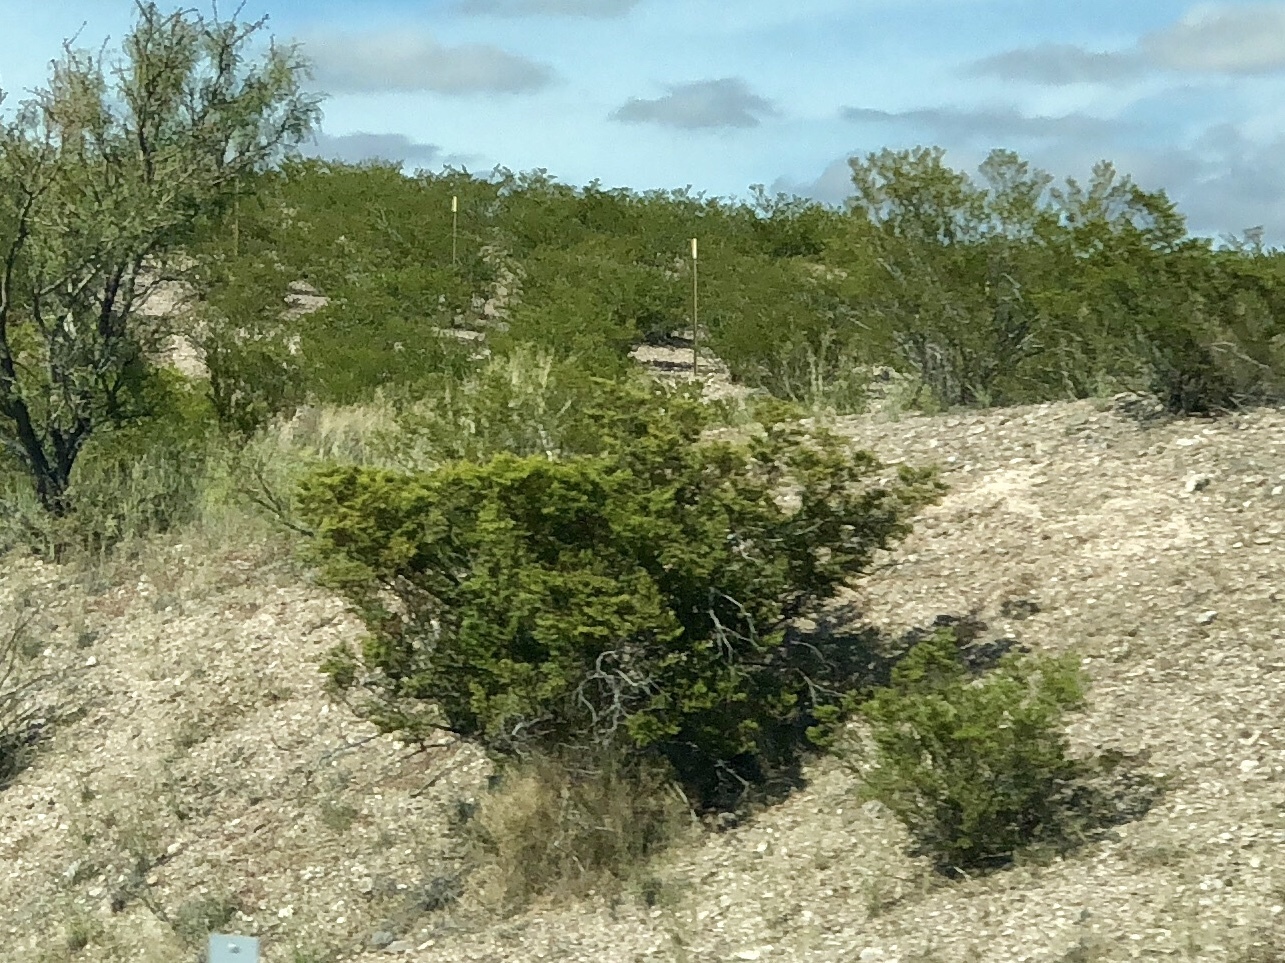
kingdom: Plantae
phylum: Tracheophyta
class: Magnoliopsida
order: Zygophyllales
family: Zygophyllaceae
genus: Larrea
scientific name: Larrea tridentata
